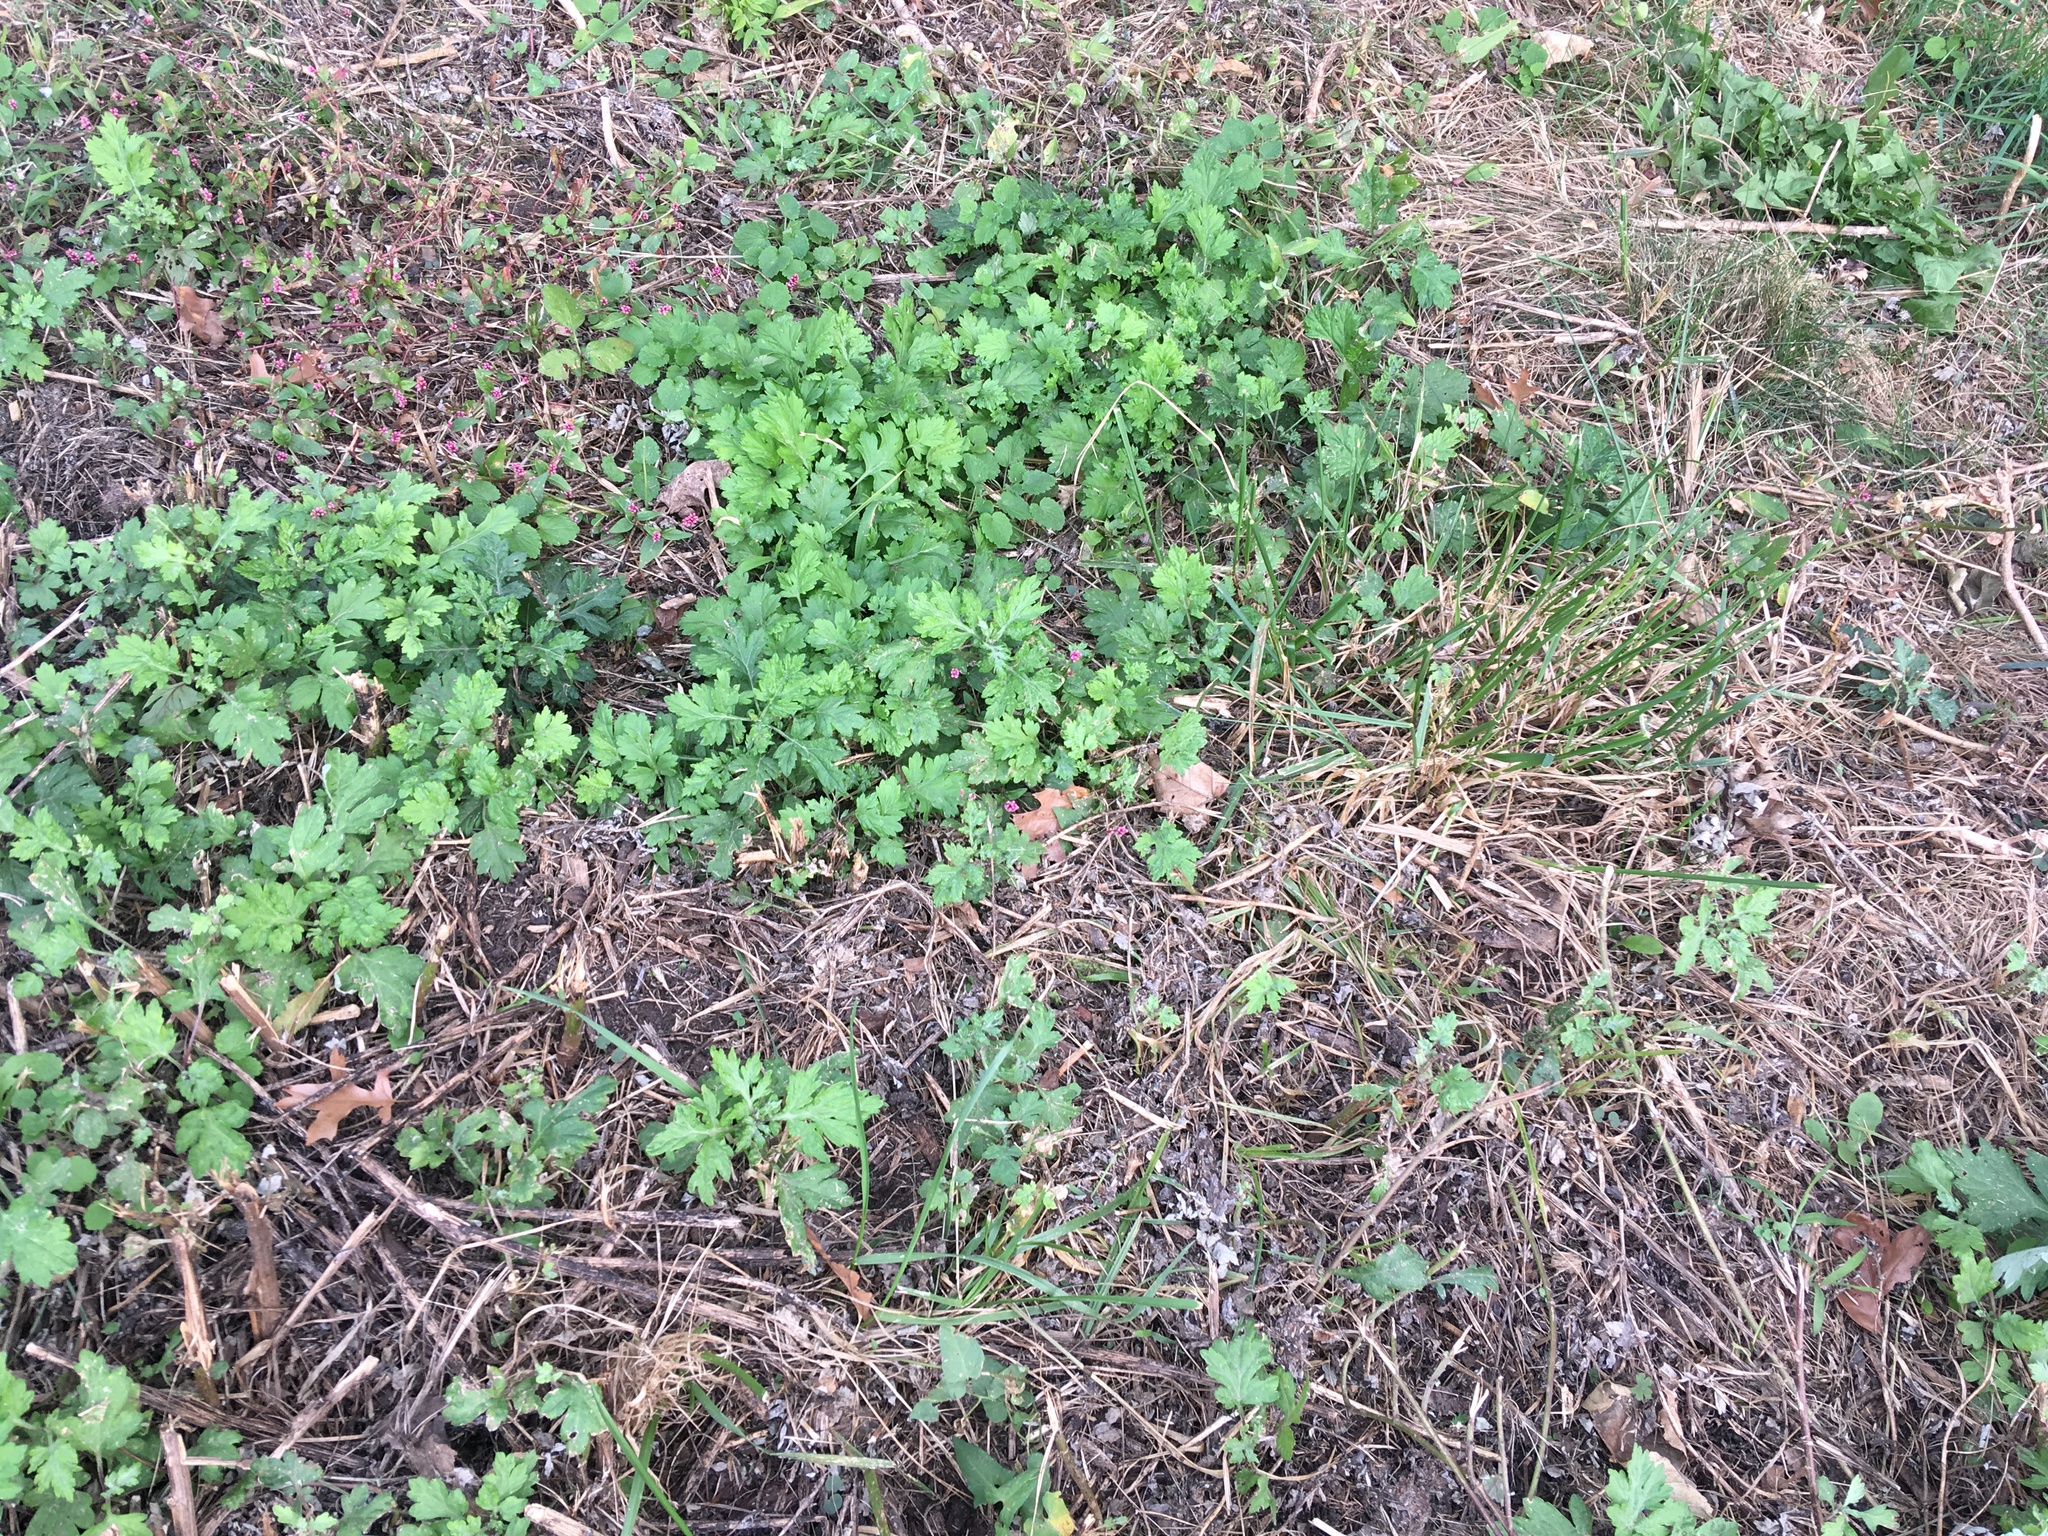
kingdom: Plantae
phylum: Tracheophyta
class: Magnoliopsida
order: Asterales
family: Asteraceae
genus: Artemisia
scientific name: Artemisia vulgaris
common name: Mugwort
